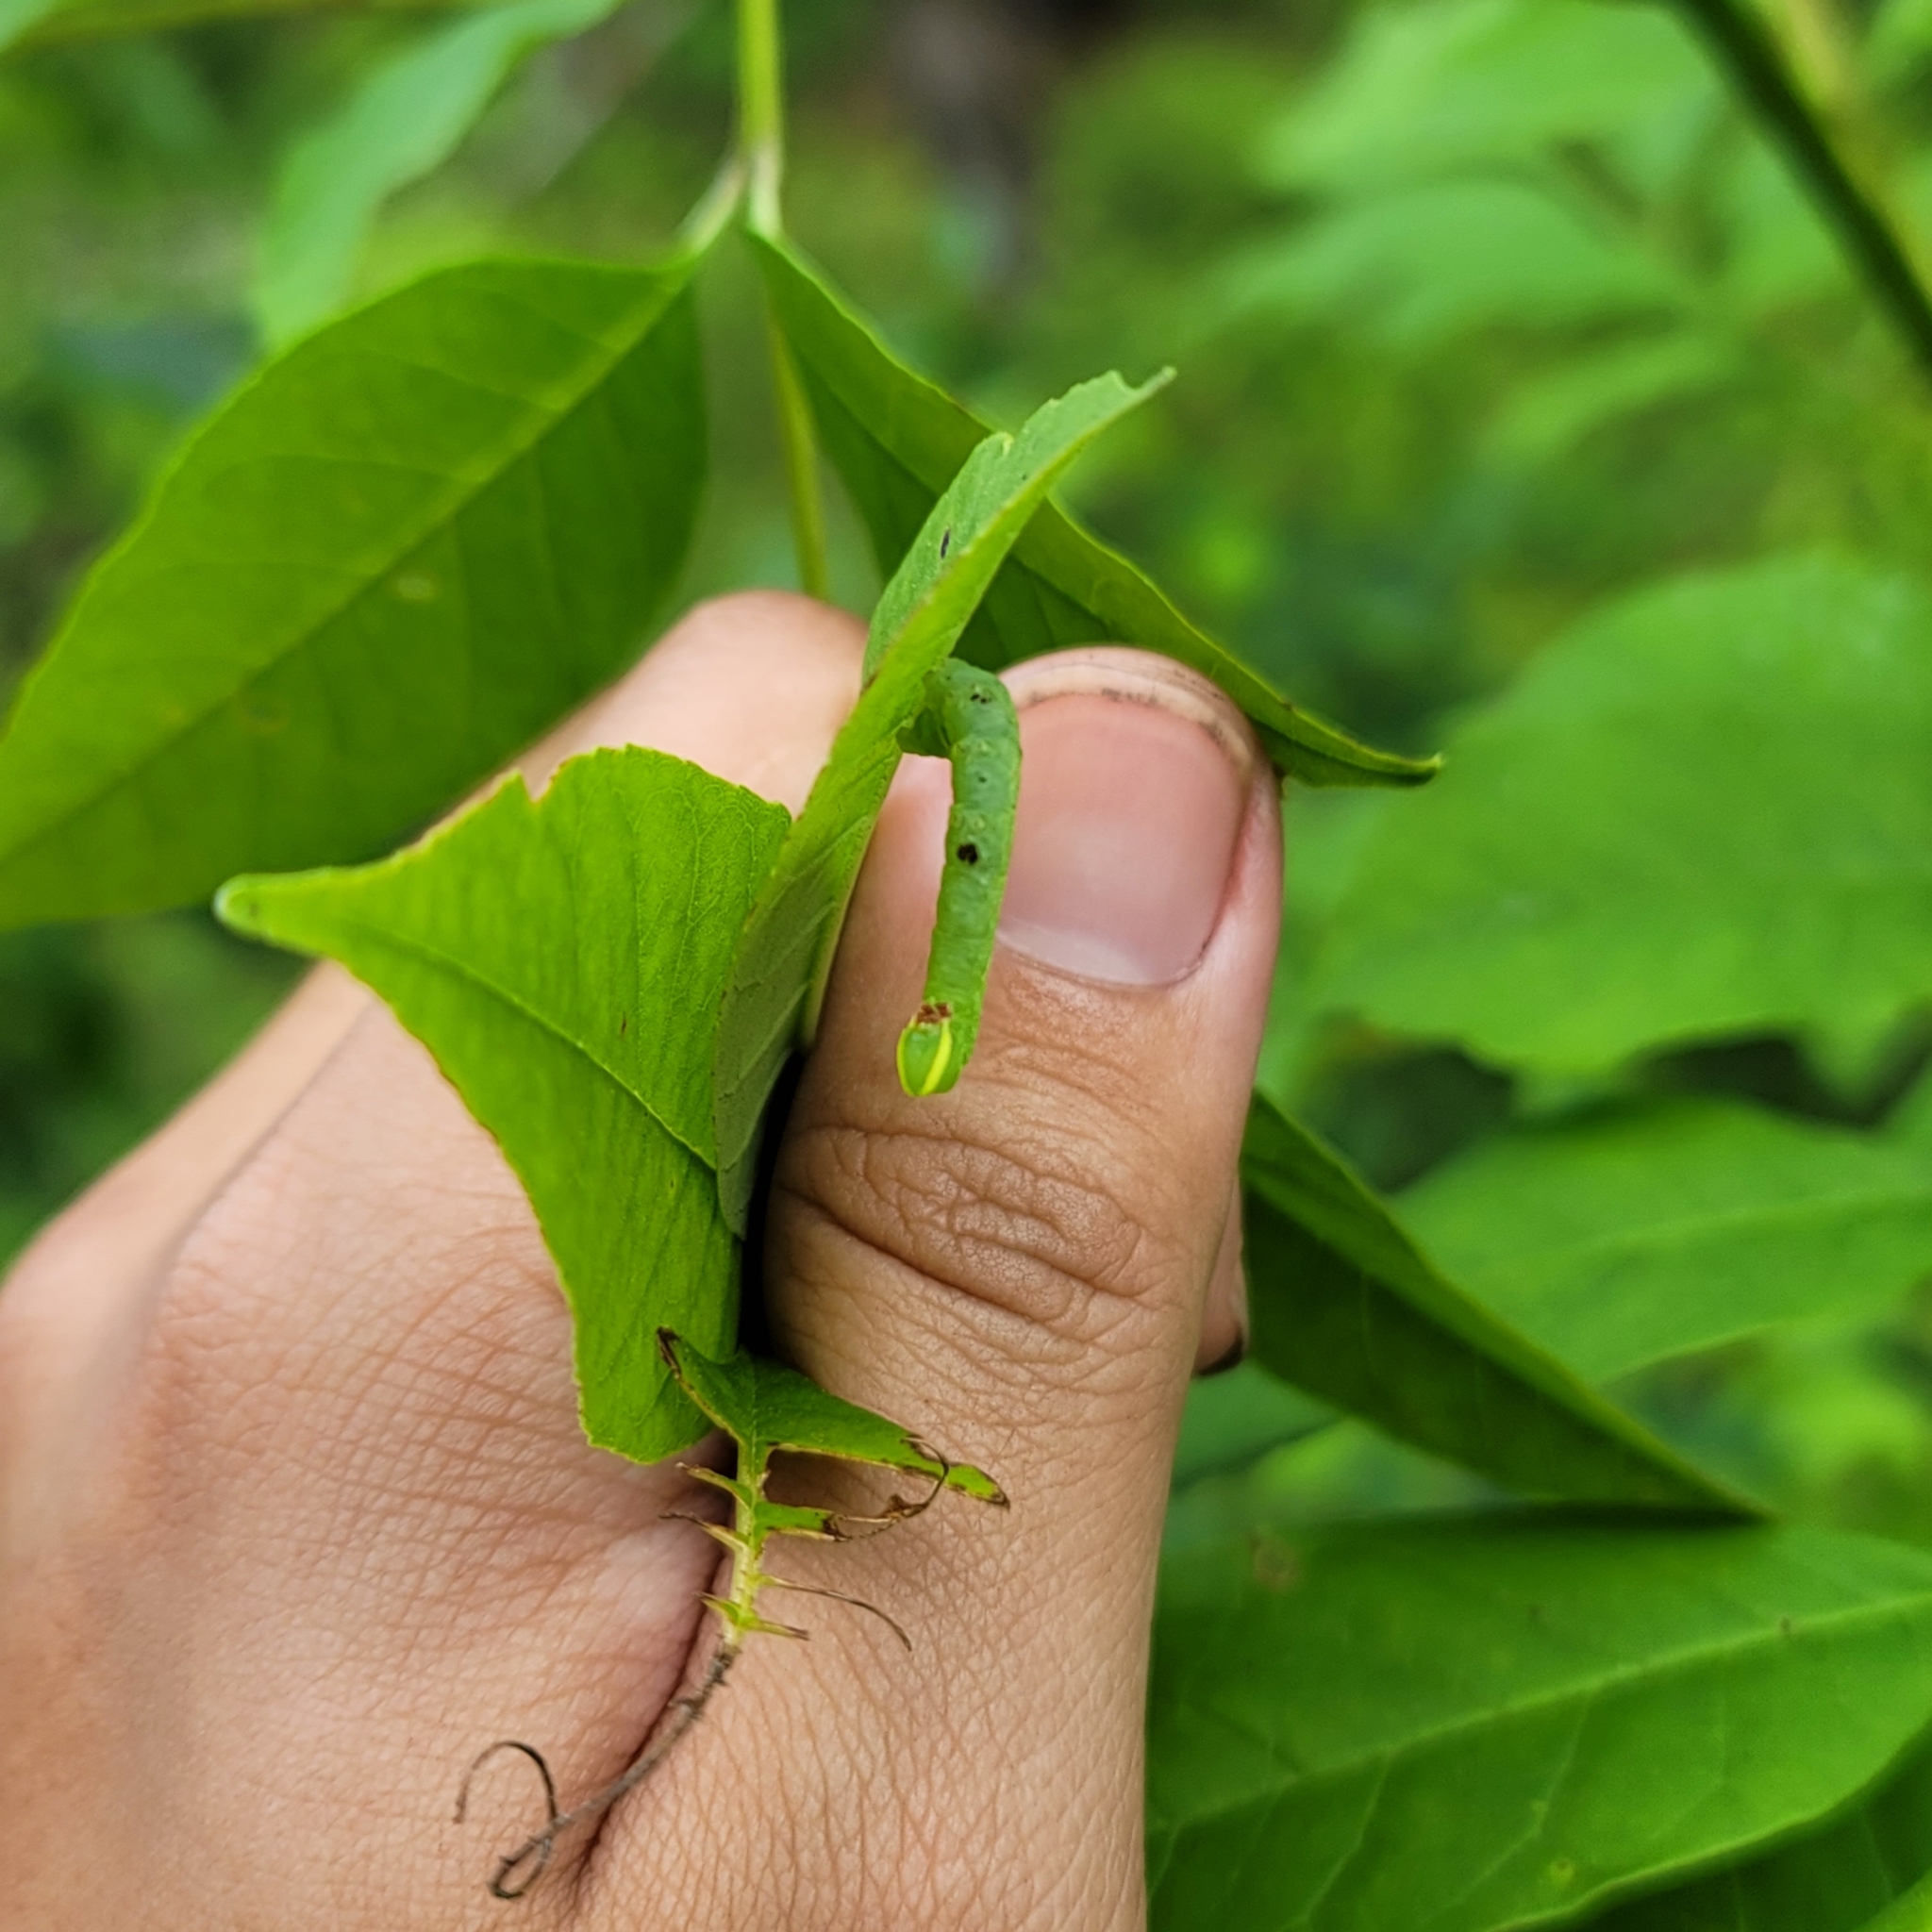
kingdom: Animalia
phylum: Arthropoda
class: Insecta
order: Lepidoptera
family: Sphingidae
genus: Ceratomia
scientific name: Ceratomia undulosa
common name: Waved sphinx
